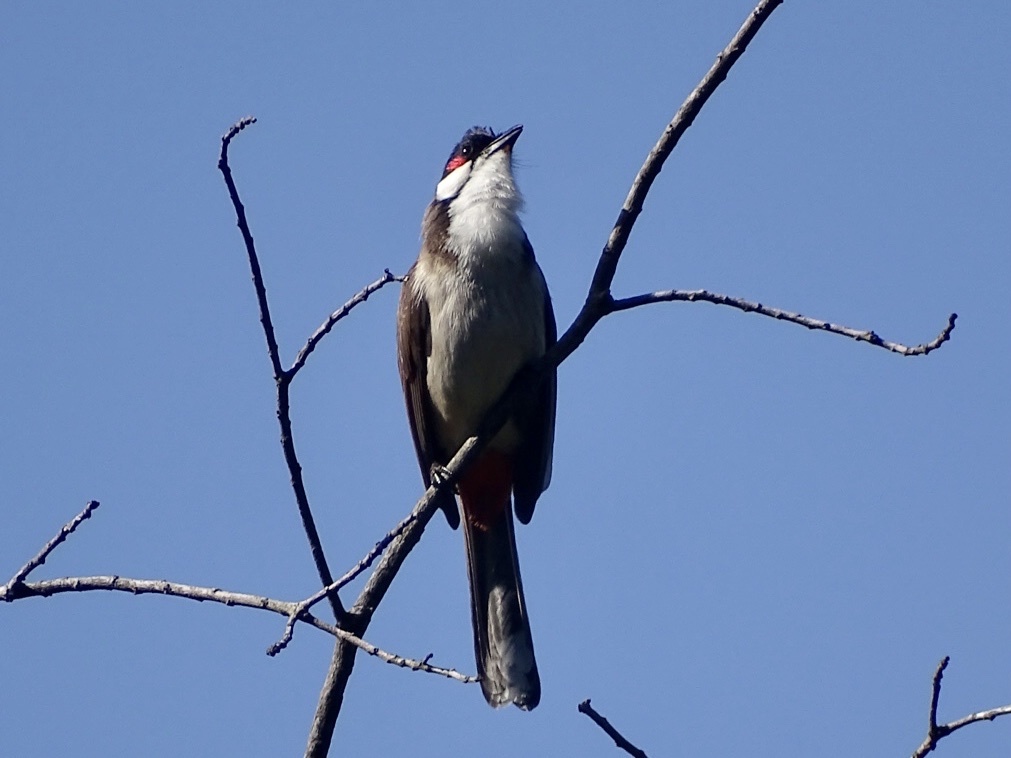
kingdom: Animalia
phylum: Chordata
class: Aves
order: Passeriformes
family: Pycnonotidae
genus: Pycnonotus
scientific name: Pycnonotus jocosus
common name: Red-whiskered bulbul
